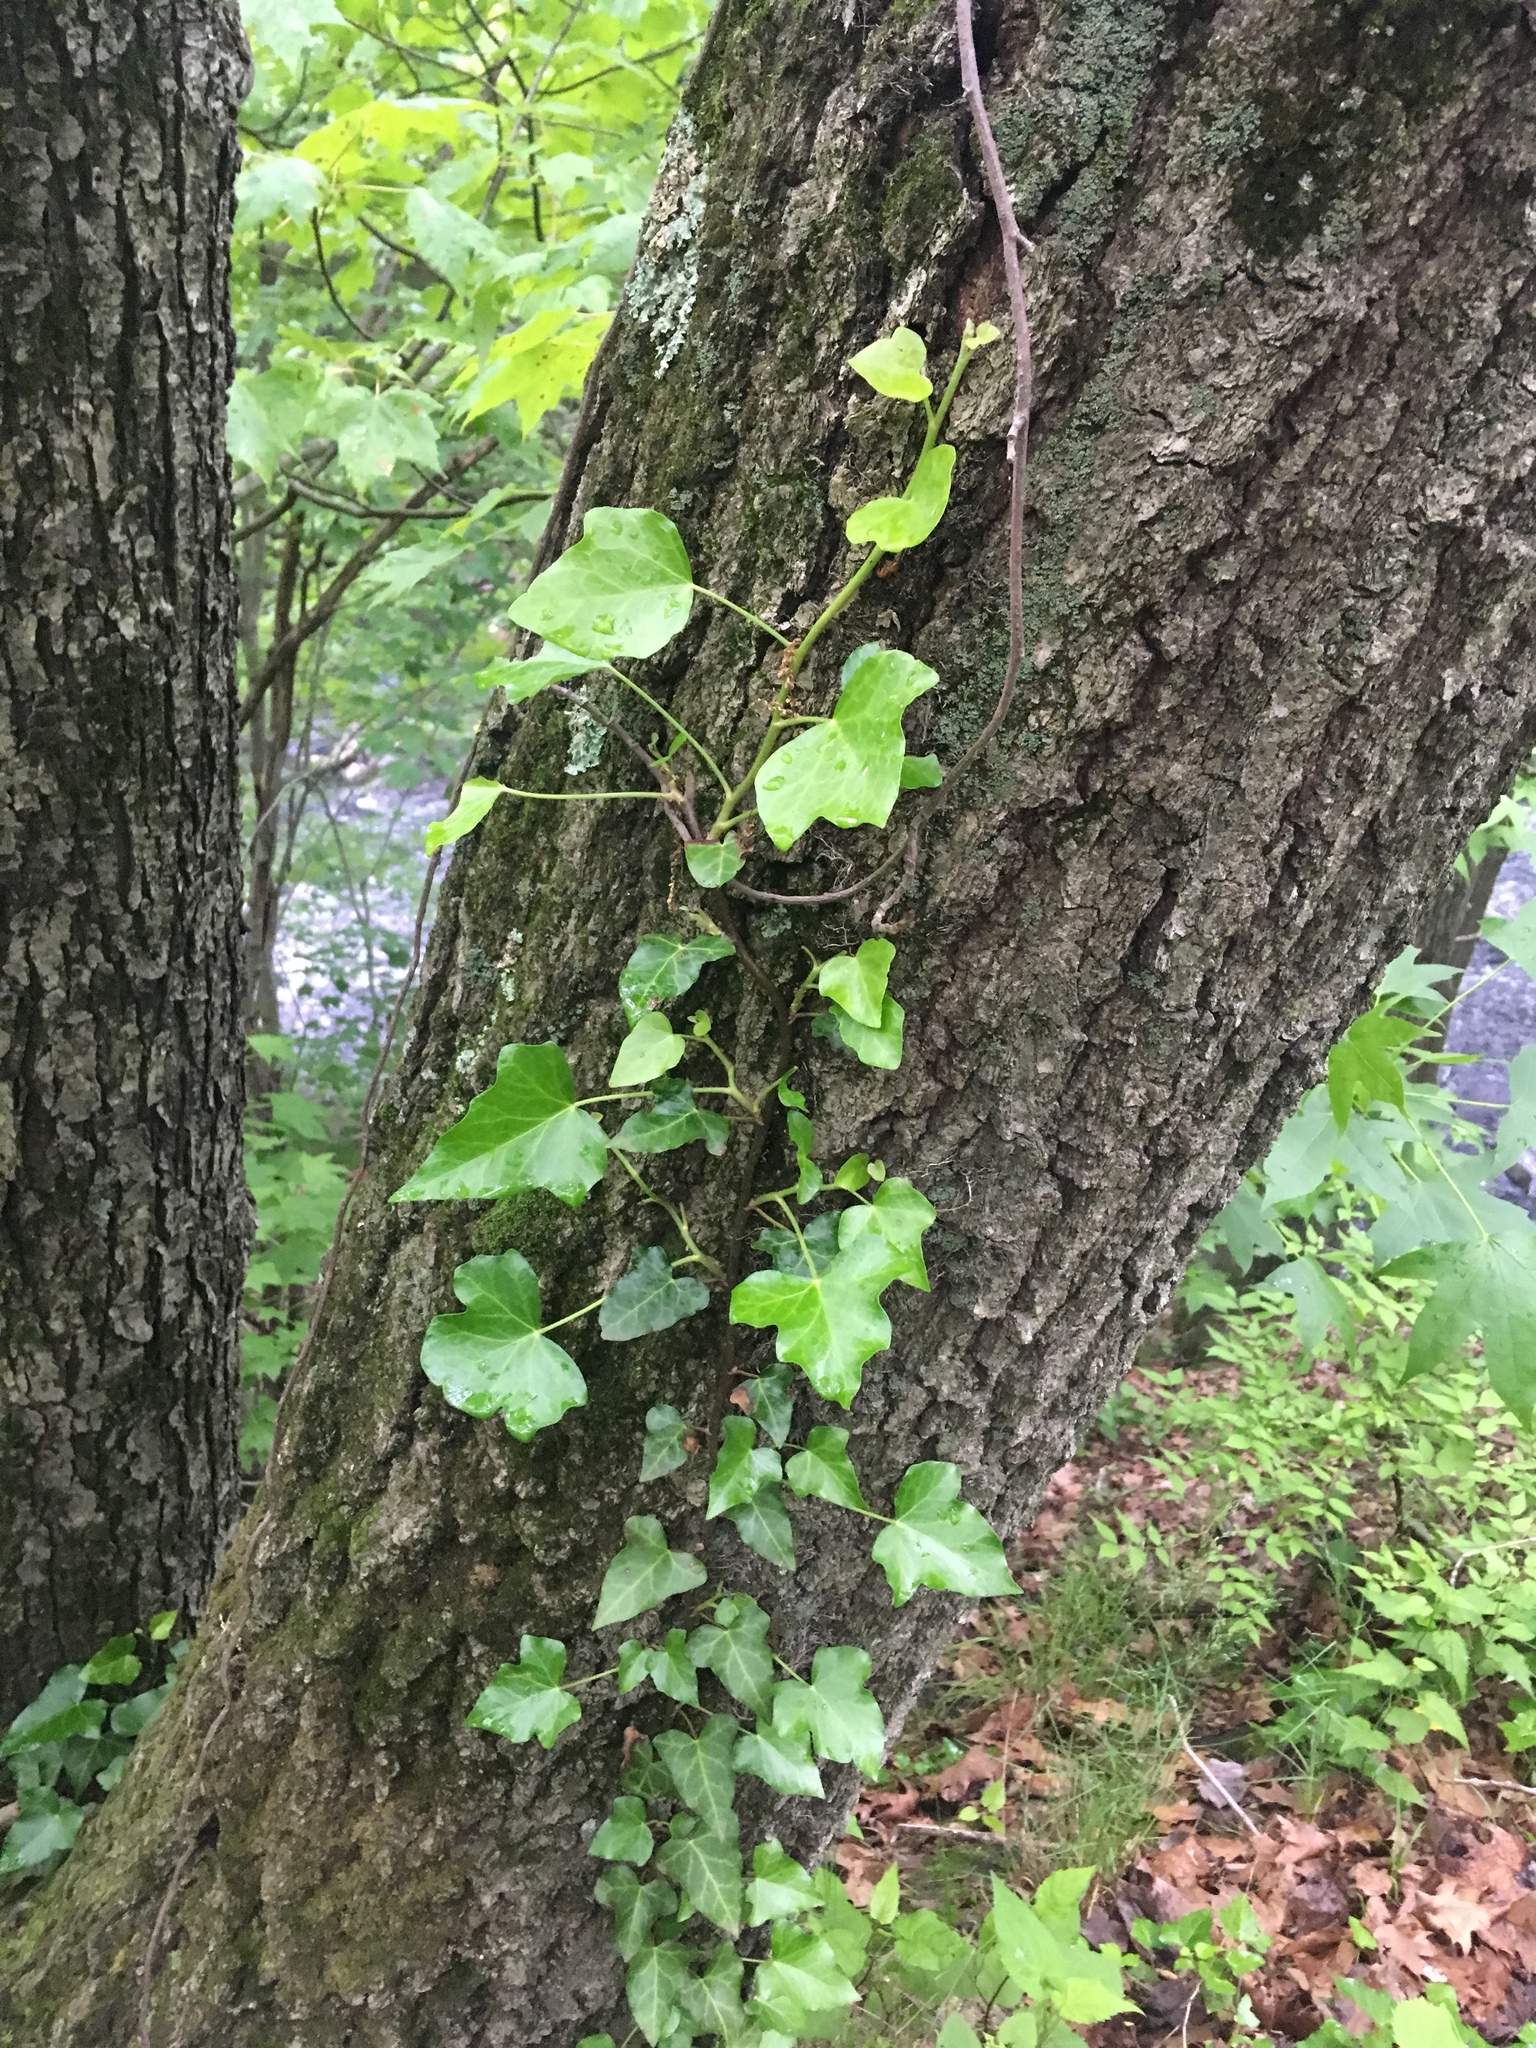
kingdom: Plantae
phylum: Tracheophyta
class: Magnoliopsida
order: Apiales
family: Araliaceae
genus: Hedera
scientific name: Hedera helix
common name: Ivy
